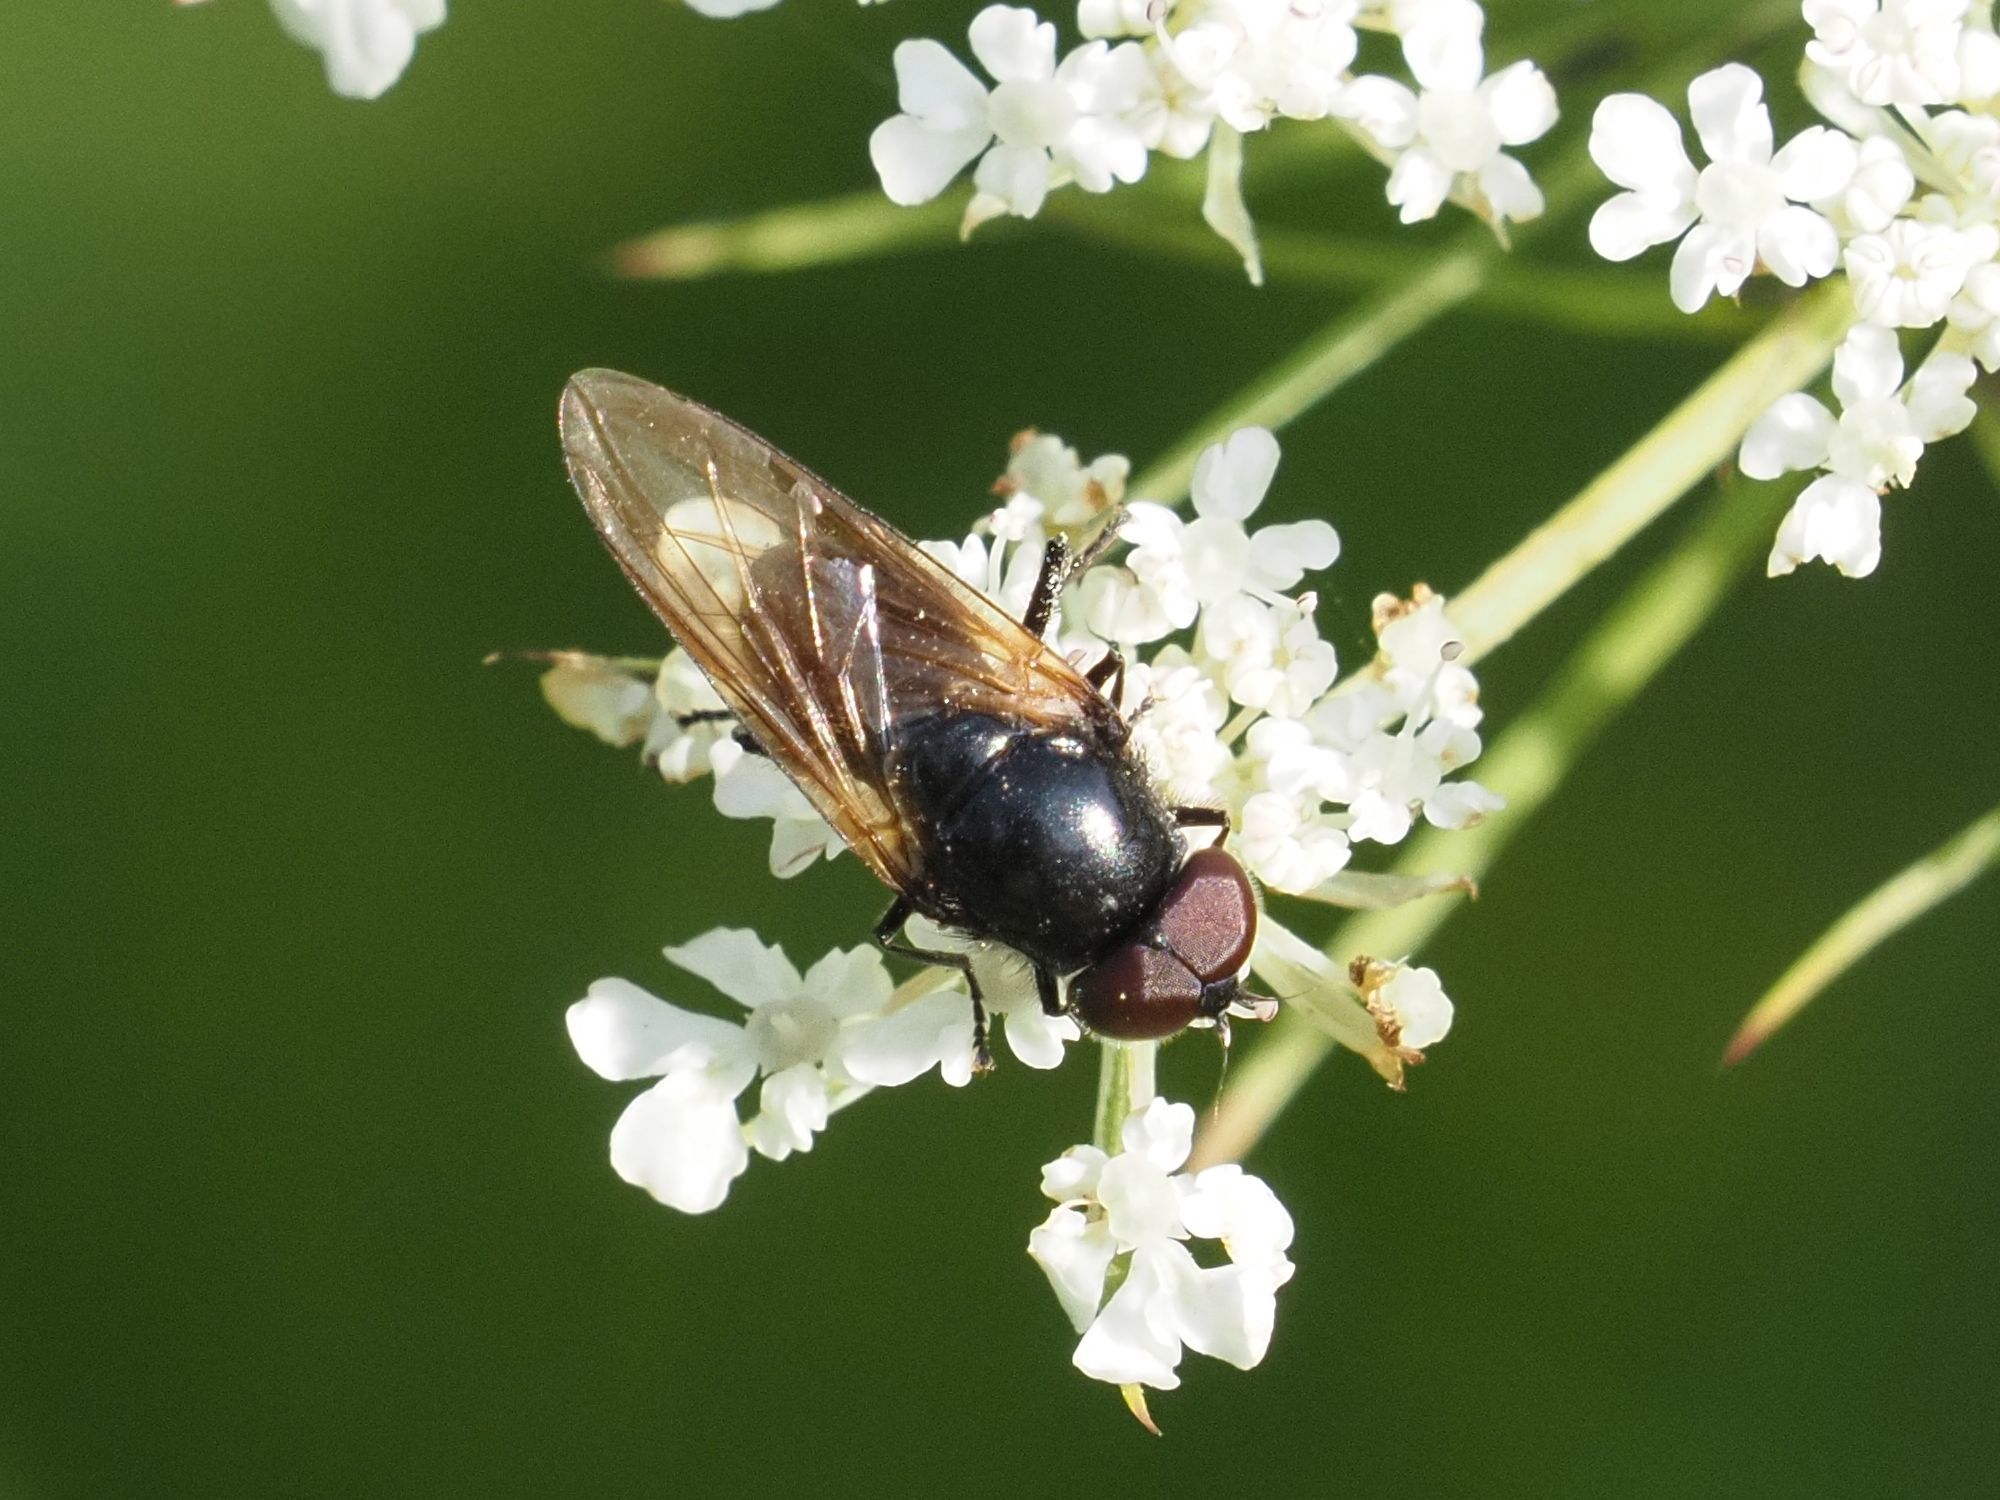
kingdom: Animalia
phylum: Arthropoda
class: Insecta
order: Diptera
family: Syrphidae
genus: Cheilosia
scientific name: Cheilosia impressa
